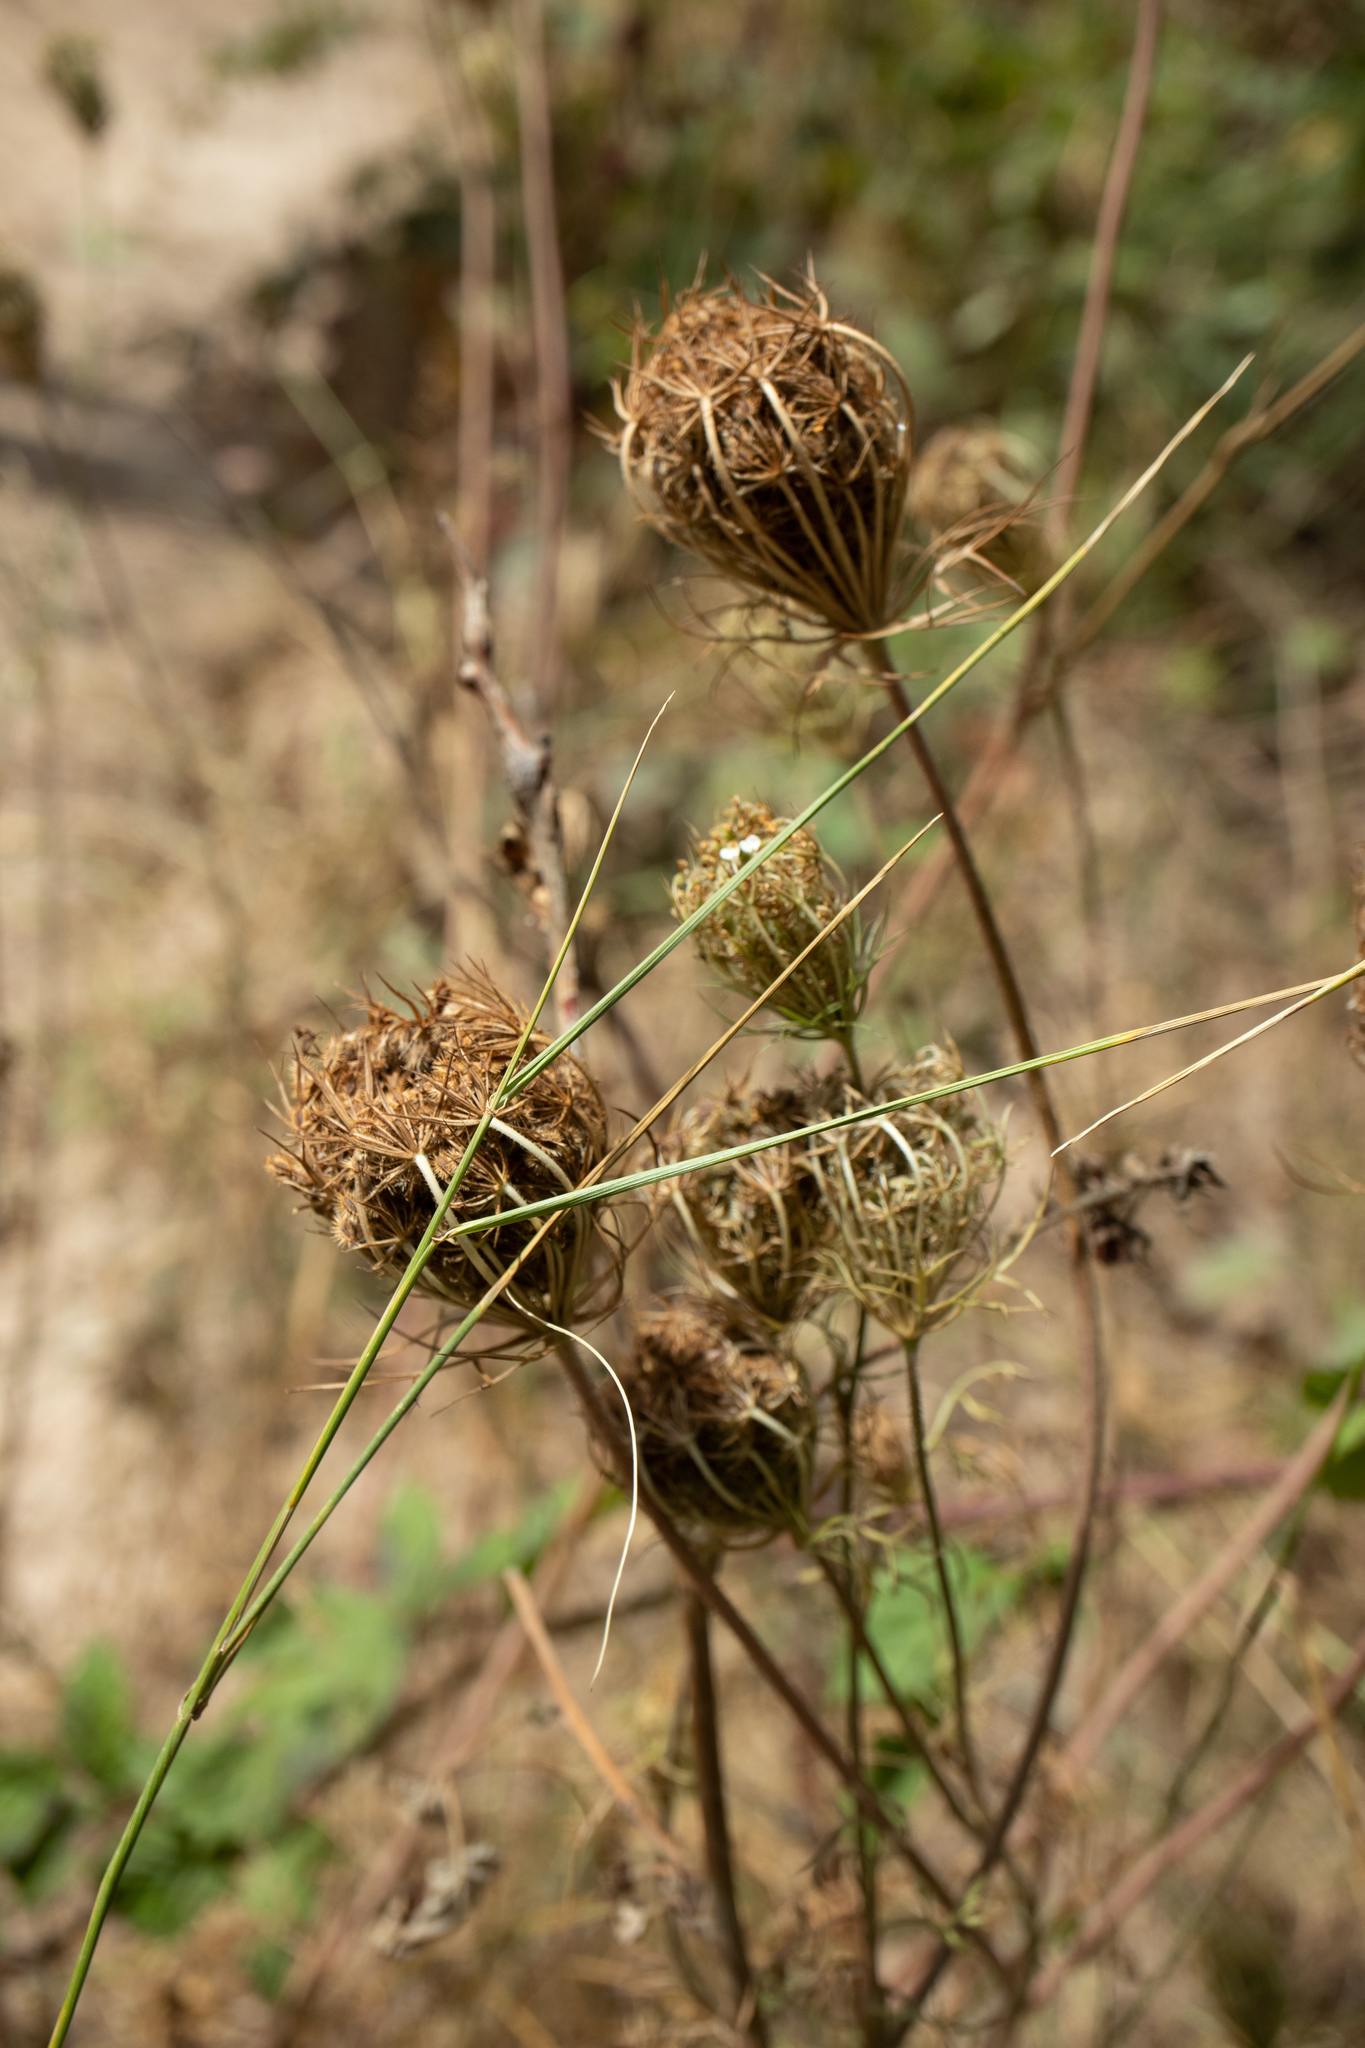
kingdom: Plantae
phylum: Tracheophyta
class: Magnoliopsida
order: Apiales
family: Apiaceae
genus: Daucus
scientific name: Daucus carota
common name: Wild carrot
